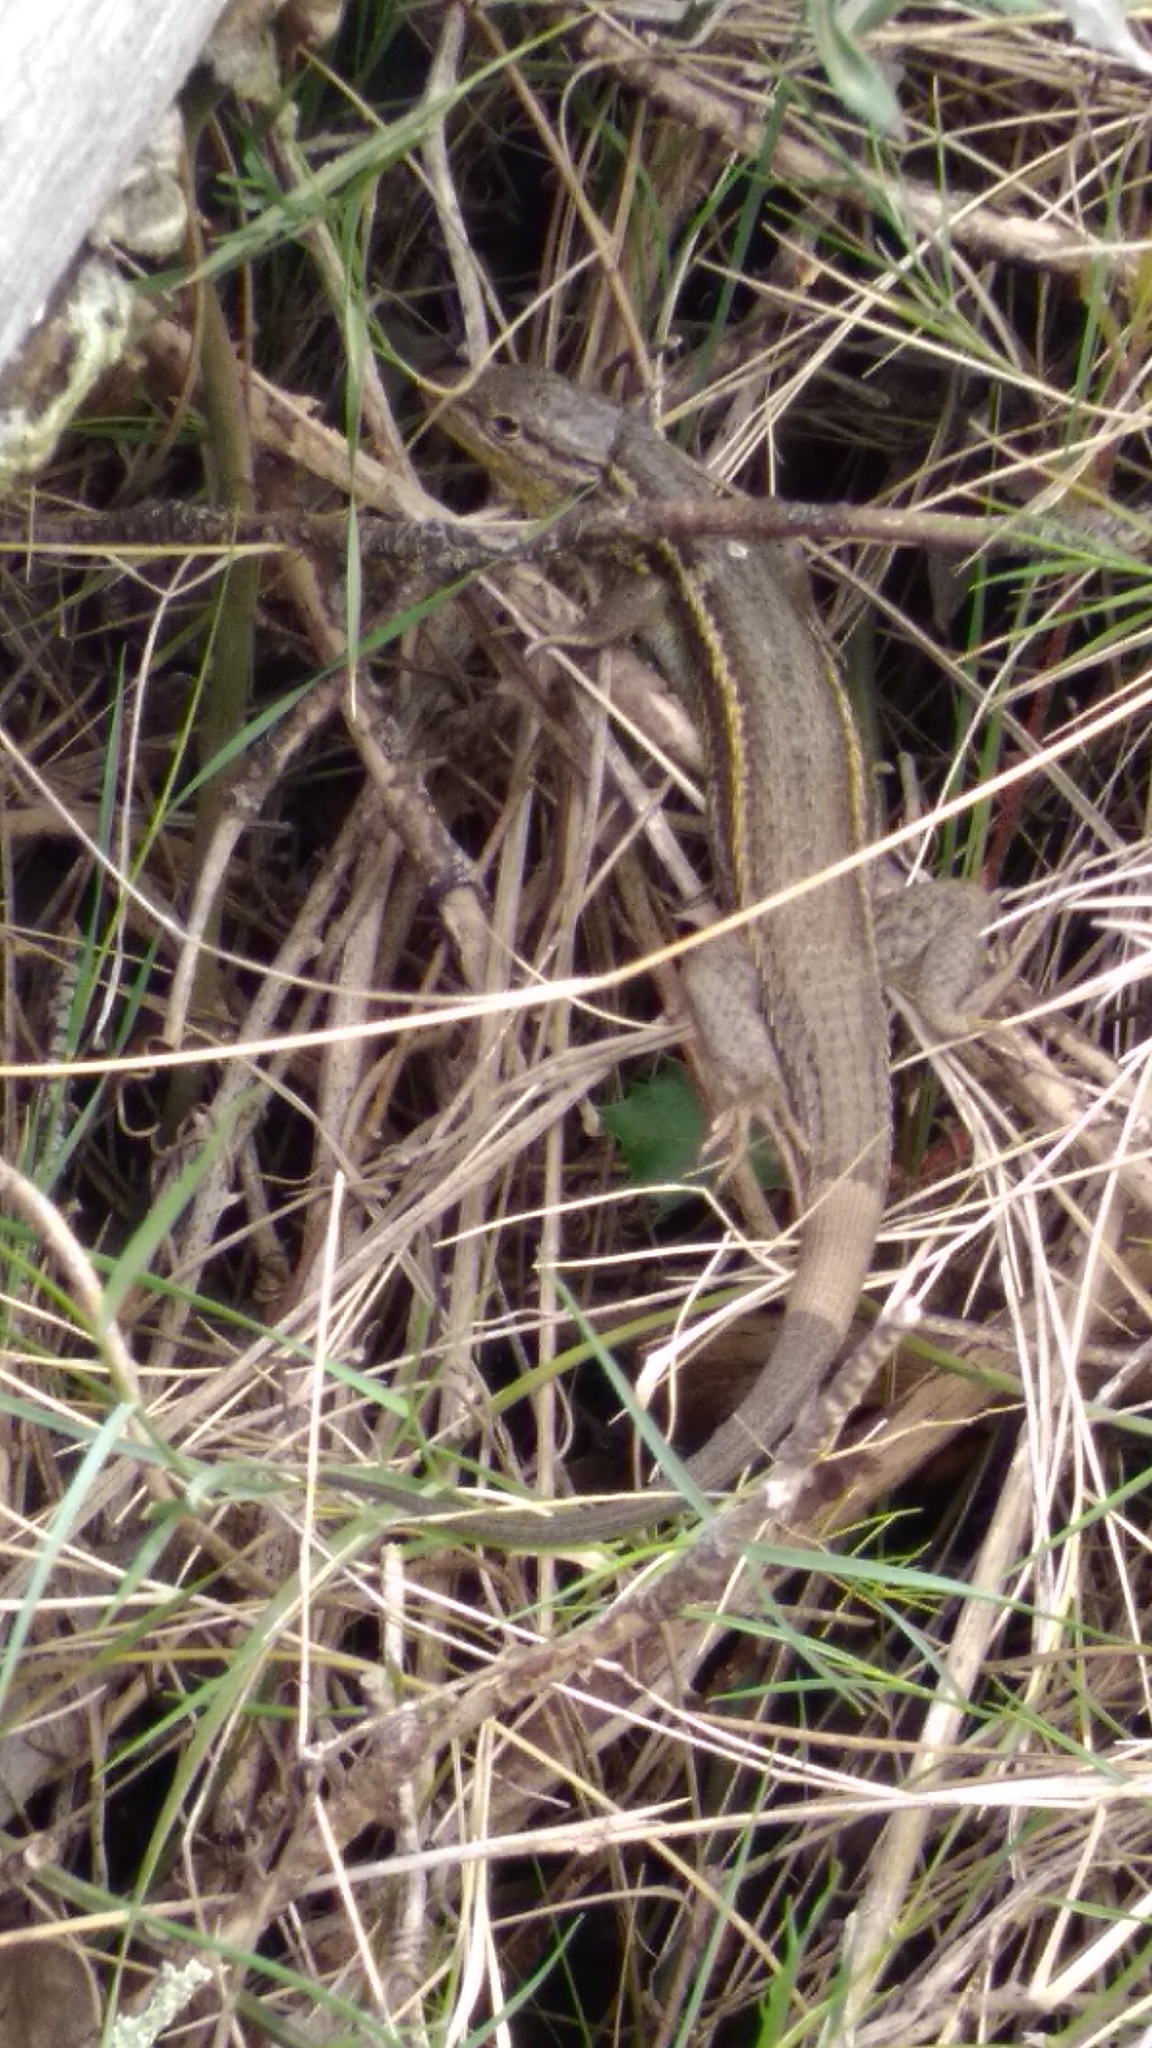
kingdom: Animalia
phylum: Chordata
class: Squamata
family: Lacertidae
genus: Psammodromus
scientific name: Psammodromus algirus
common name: Algerian psammodromus
